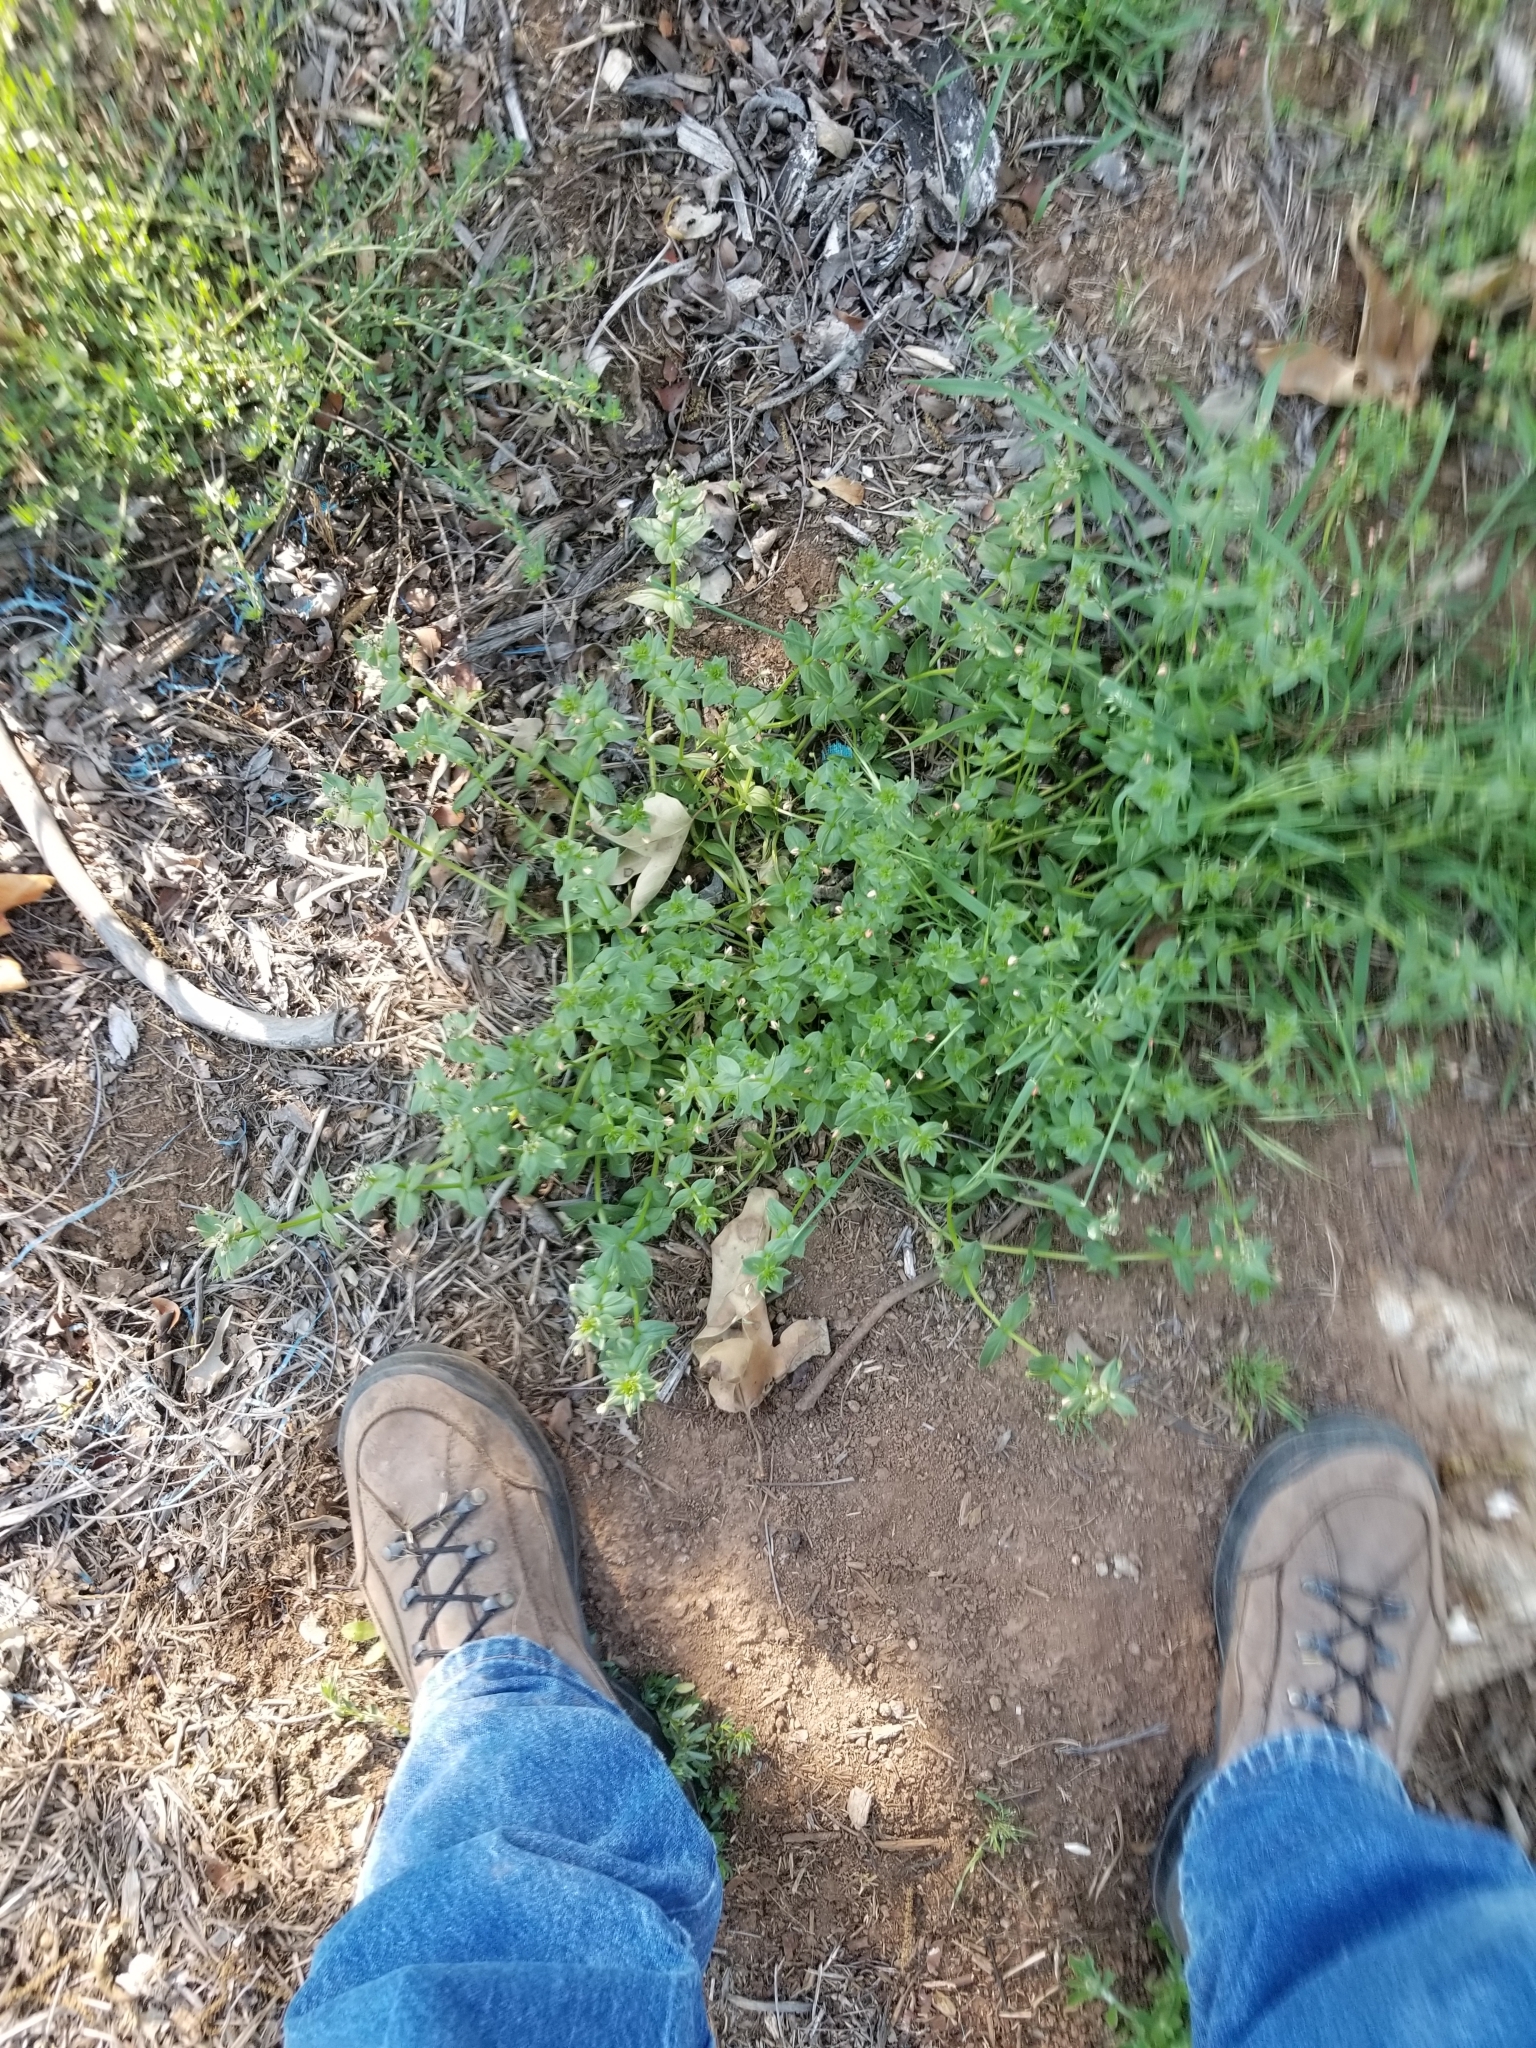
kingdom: Plantae
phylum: Tracheophyta
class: Magnoliopsida
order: Ericales
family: Primulaceae
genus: Lysimachia
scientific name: Lysimachia arvensis
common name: Scarlet pimpernel
